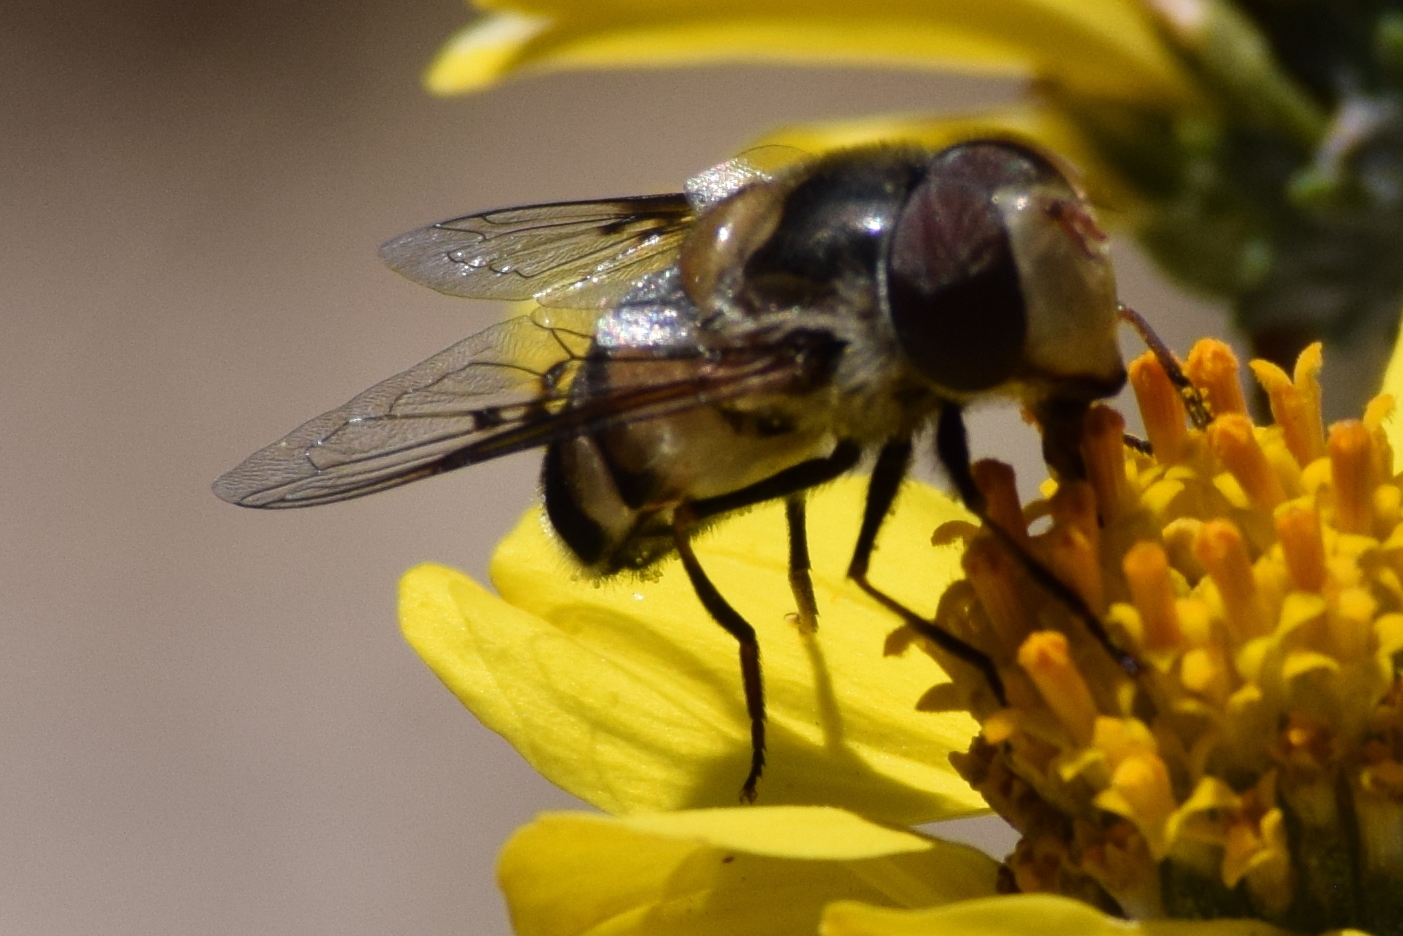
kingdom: Animalia
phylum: Arthropoda
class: Insecta
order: Diptera
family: Syrphidae
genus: Copestylum
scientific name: Copestylum apiciferum
